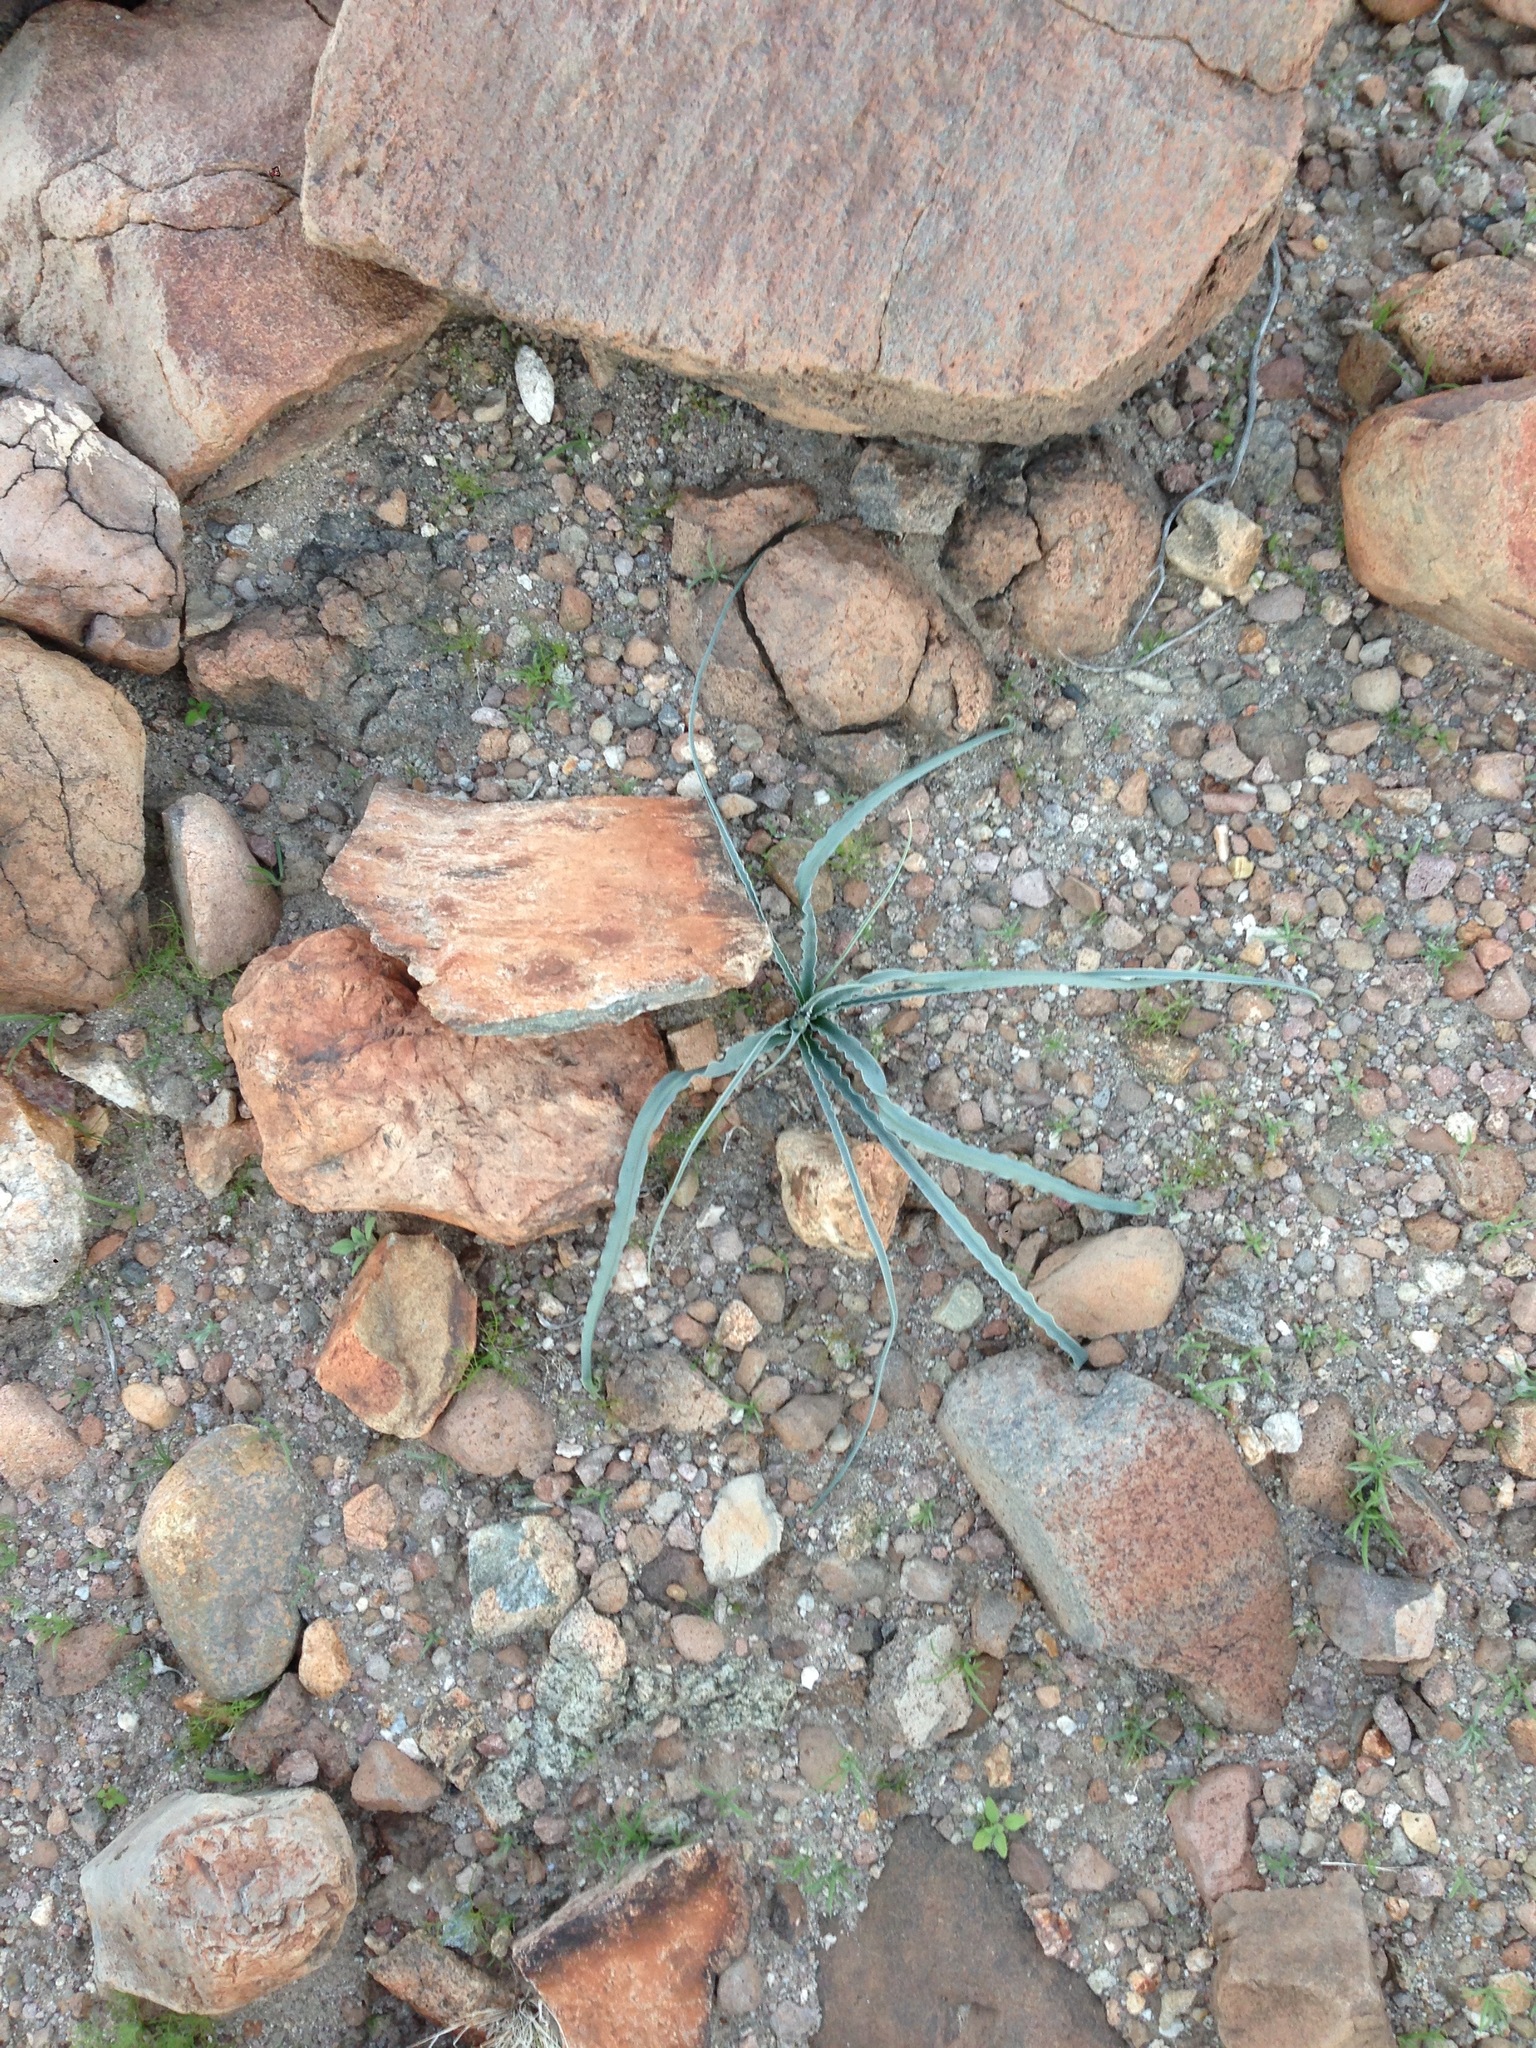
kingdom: Plantae
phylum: Tracheophyta
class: Liliopsida
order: Asparagales
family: Asparagaceae
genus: Hesperocallis
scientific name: Hesperocallis undulata
